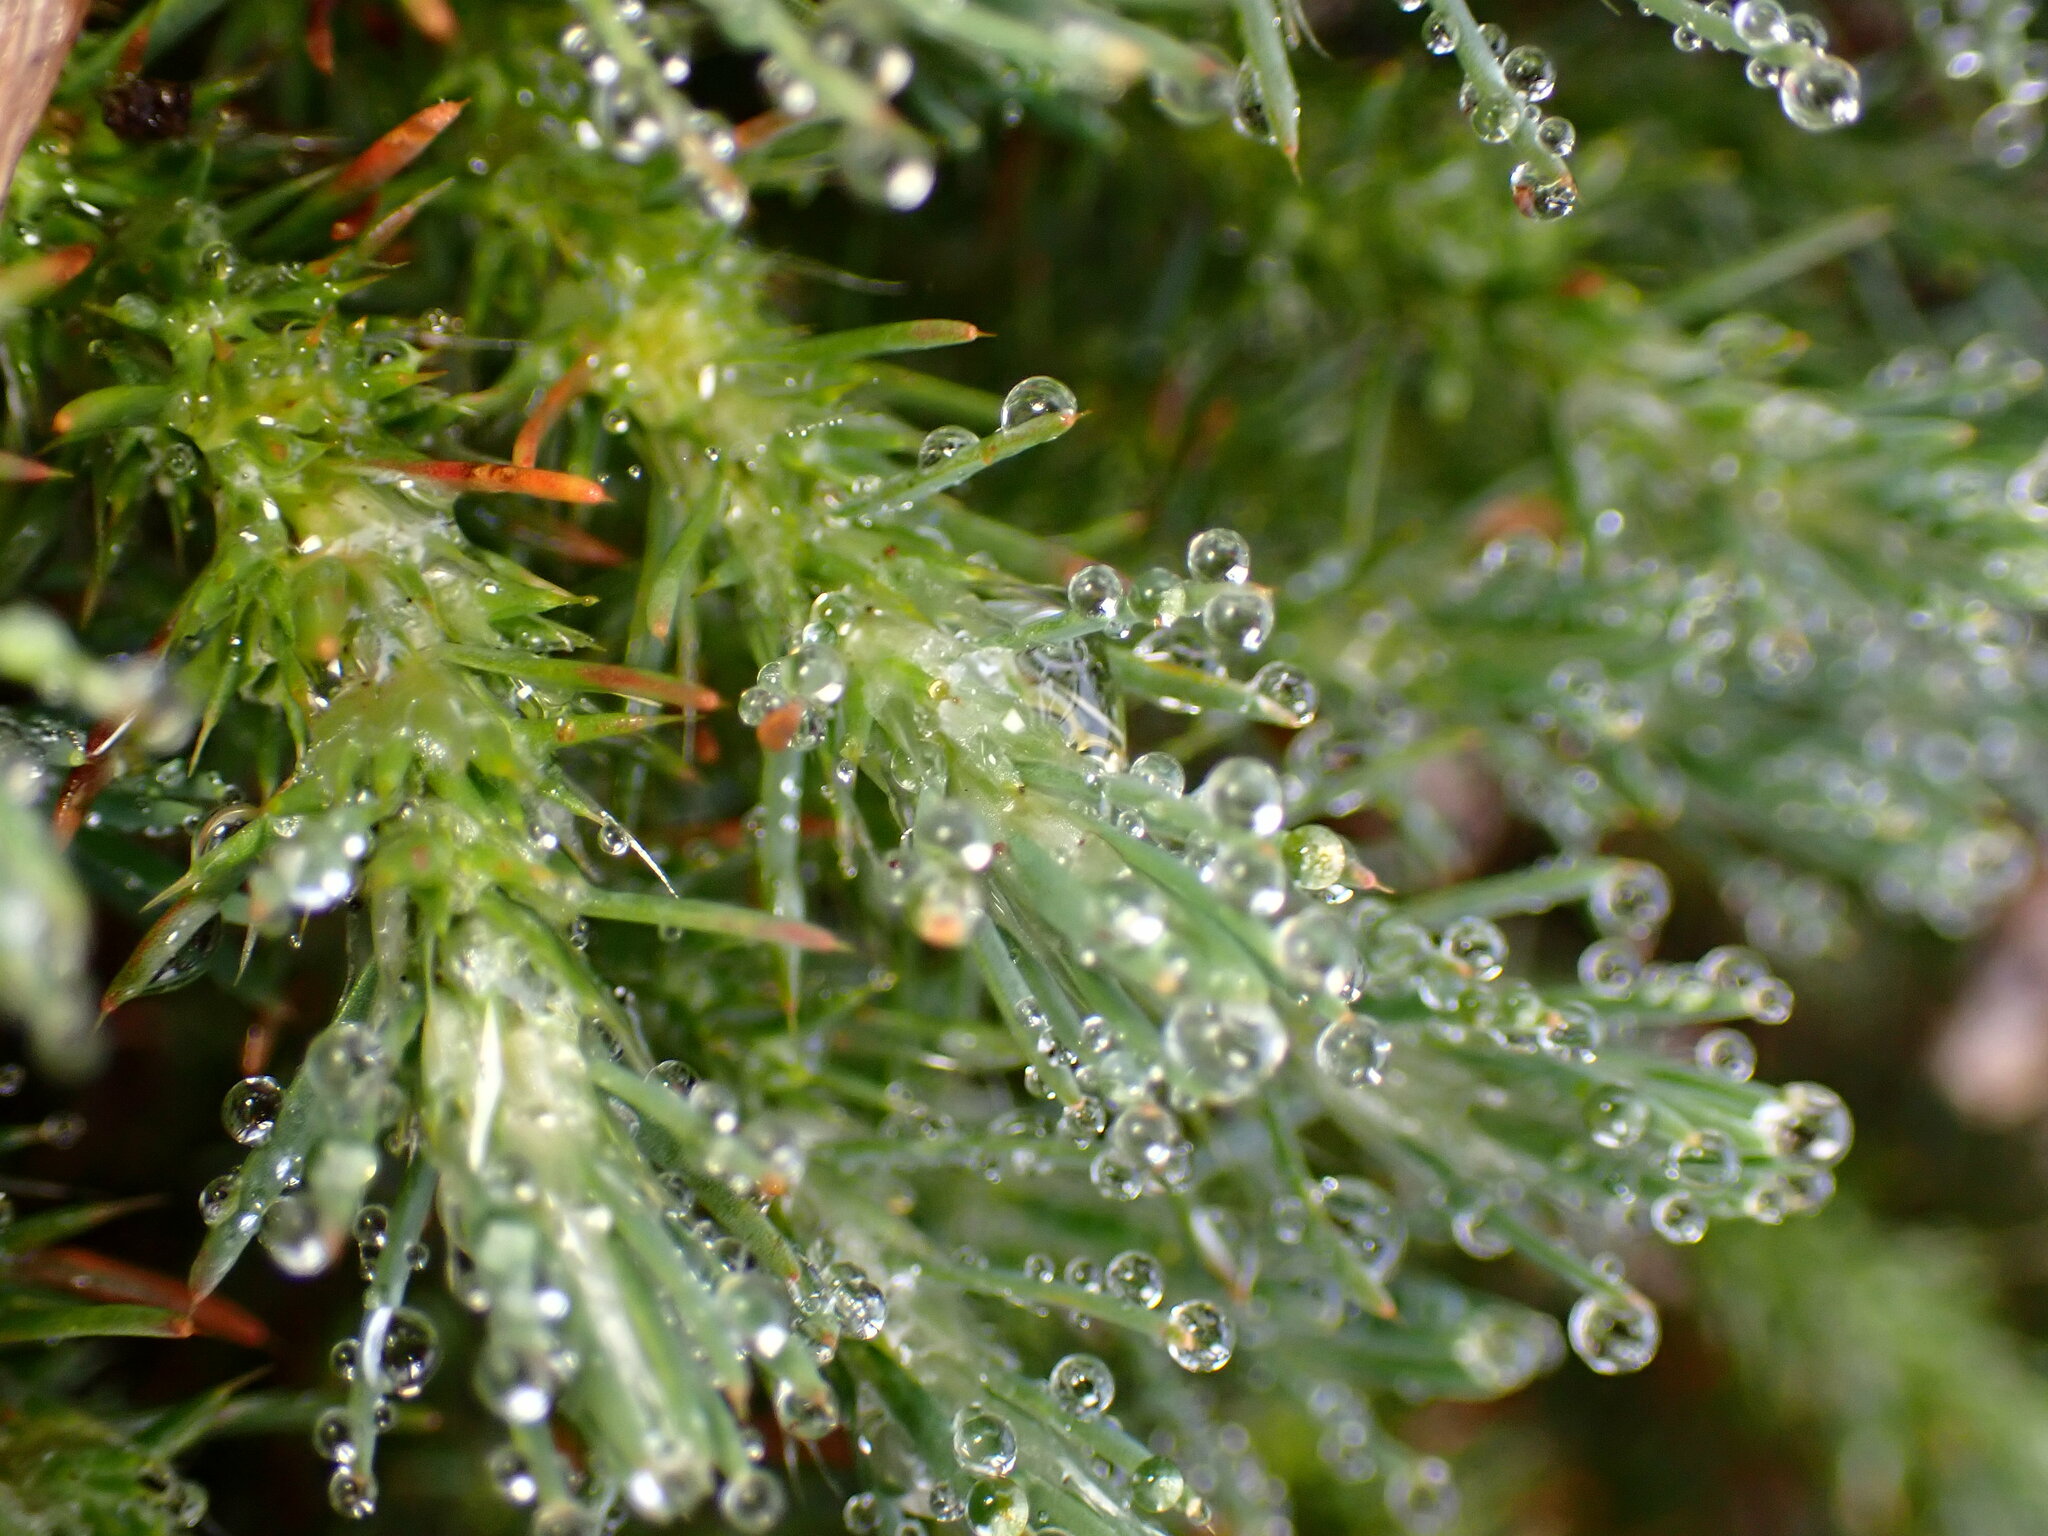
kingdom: Plantae
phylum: Tracheophyta
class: Magnoliopsida
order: Caryophyllales
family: Caryophyllaceae
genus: Cardionema
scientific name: Cardionema ramosissima
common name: Sandcarpet
